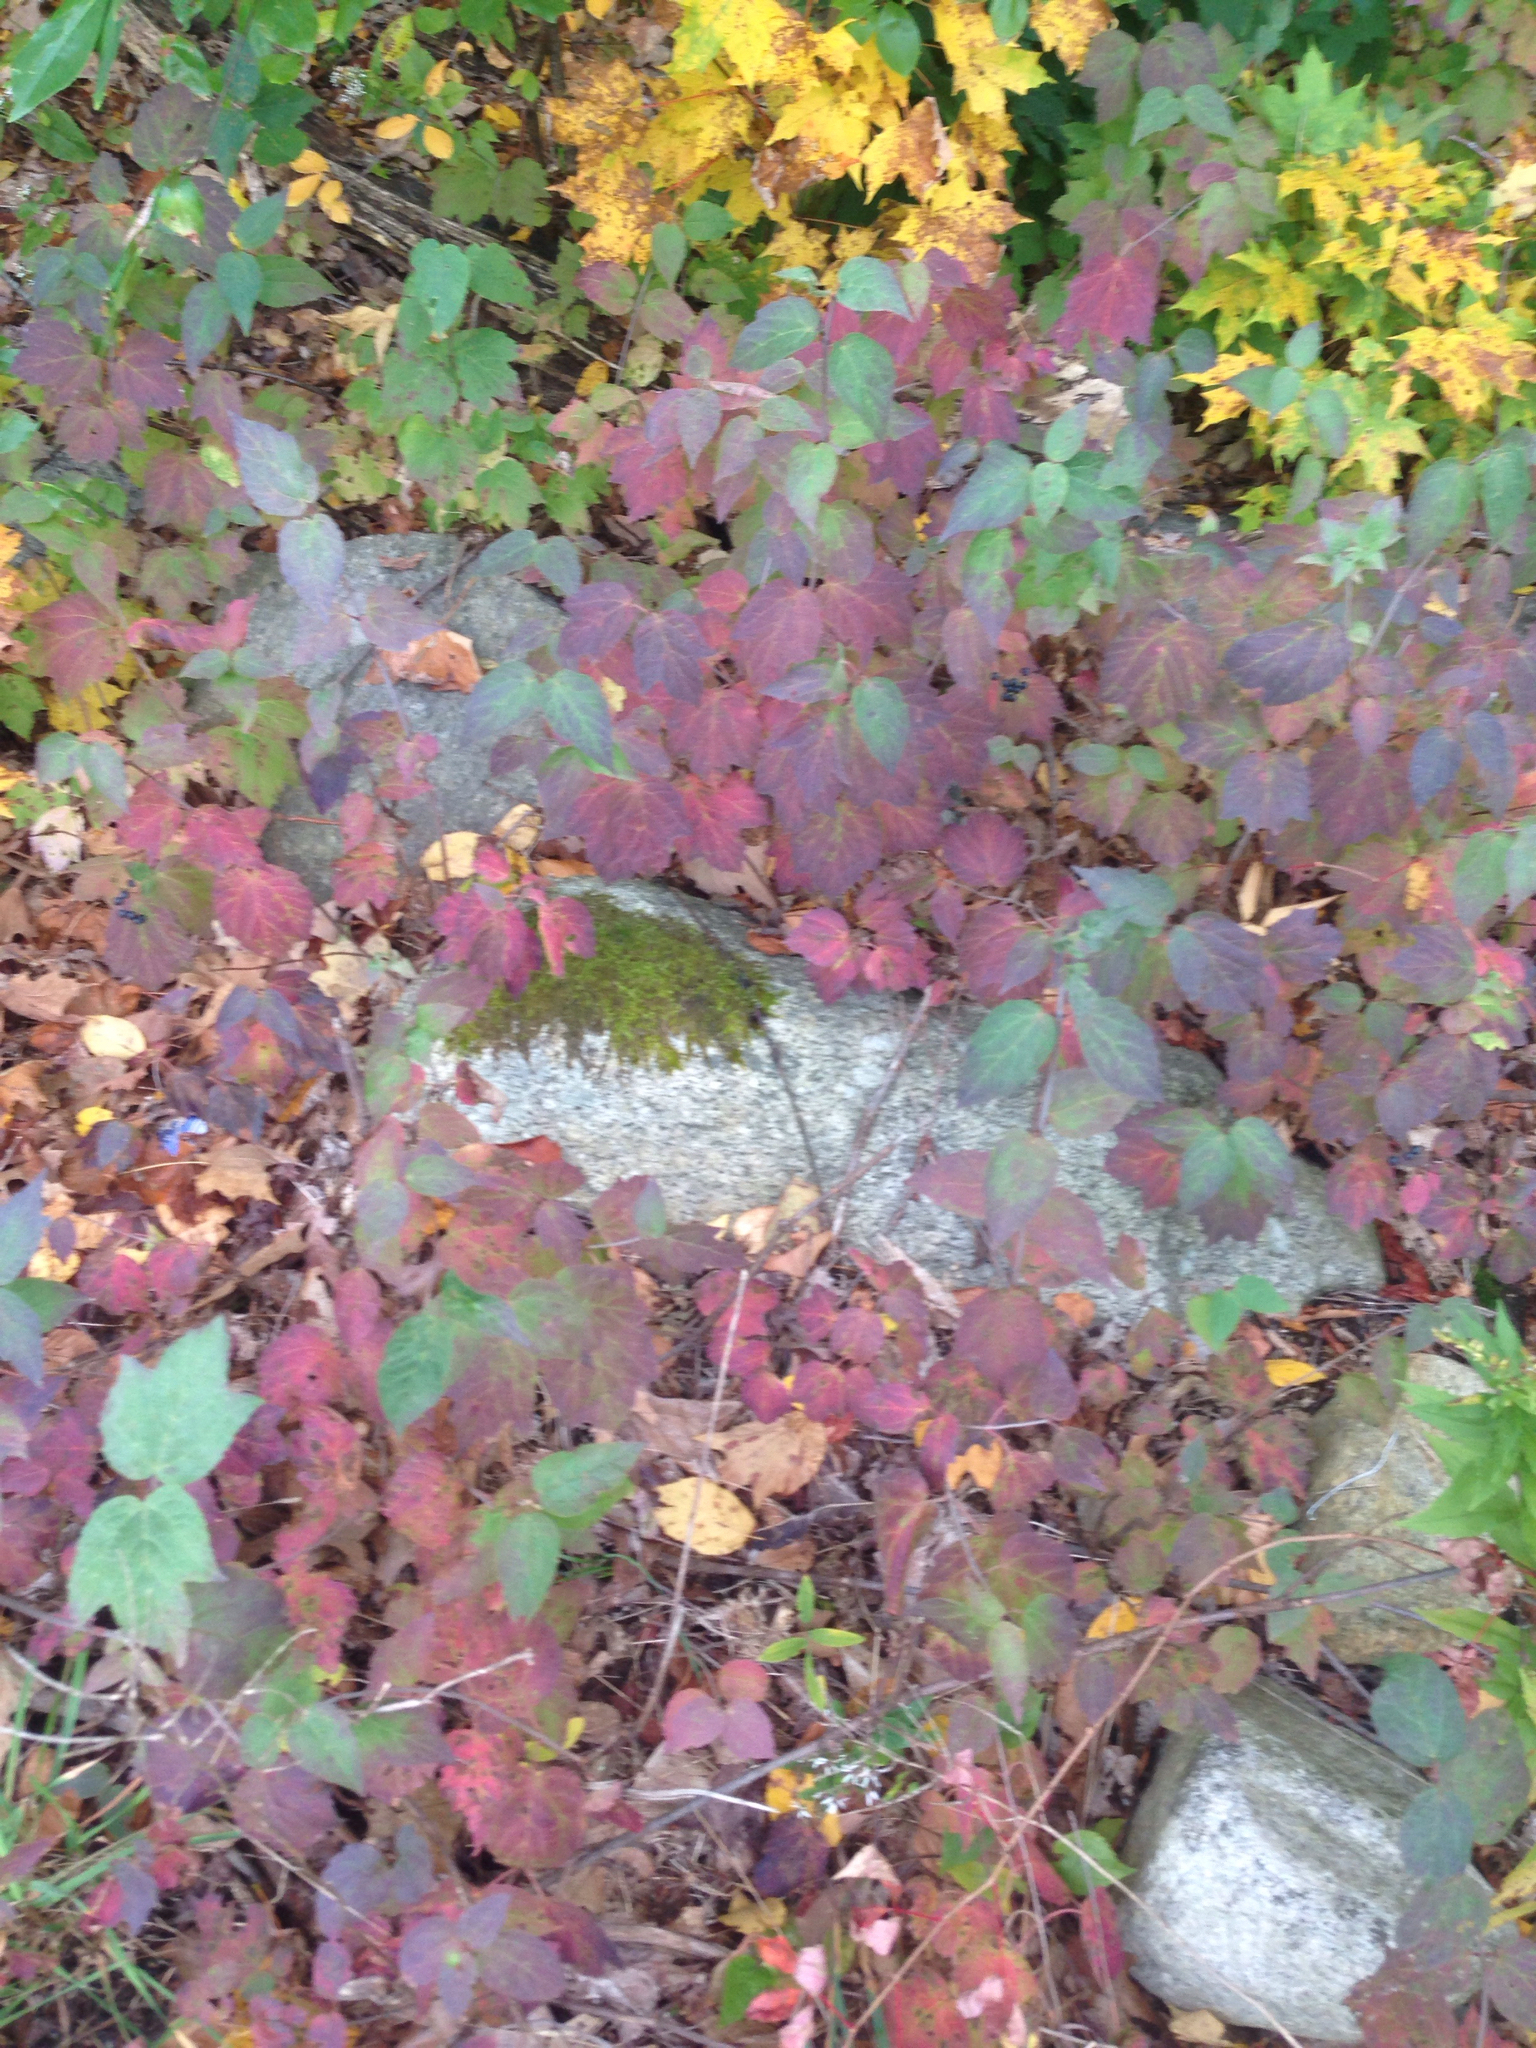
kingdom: Plantae
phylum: Tracheophyta
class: Magnoliopsida
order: Dipsacales
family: Viburnaceae
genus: Viburnum
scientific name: Viburnum acerifolium
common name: Dockmackie
